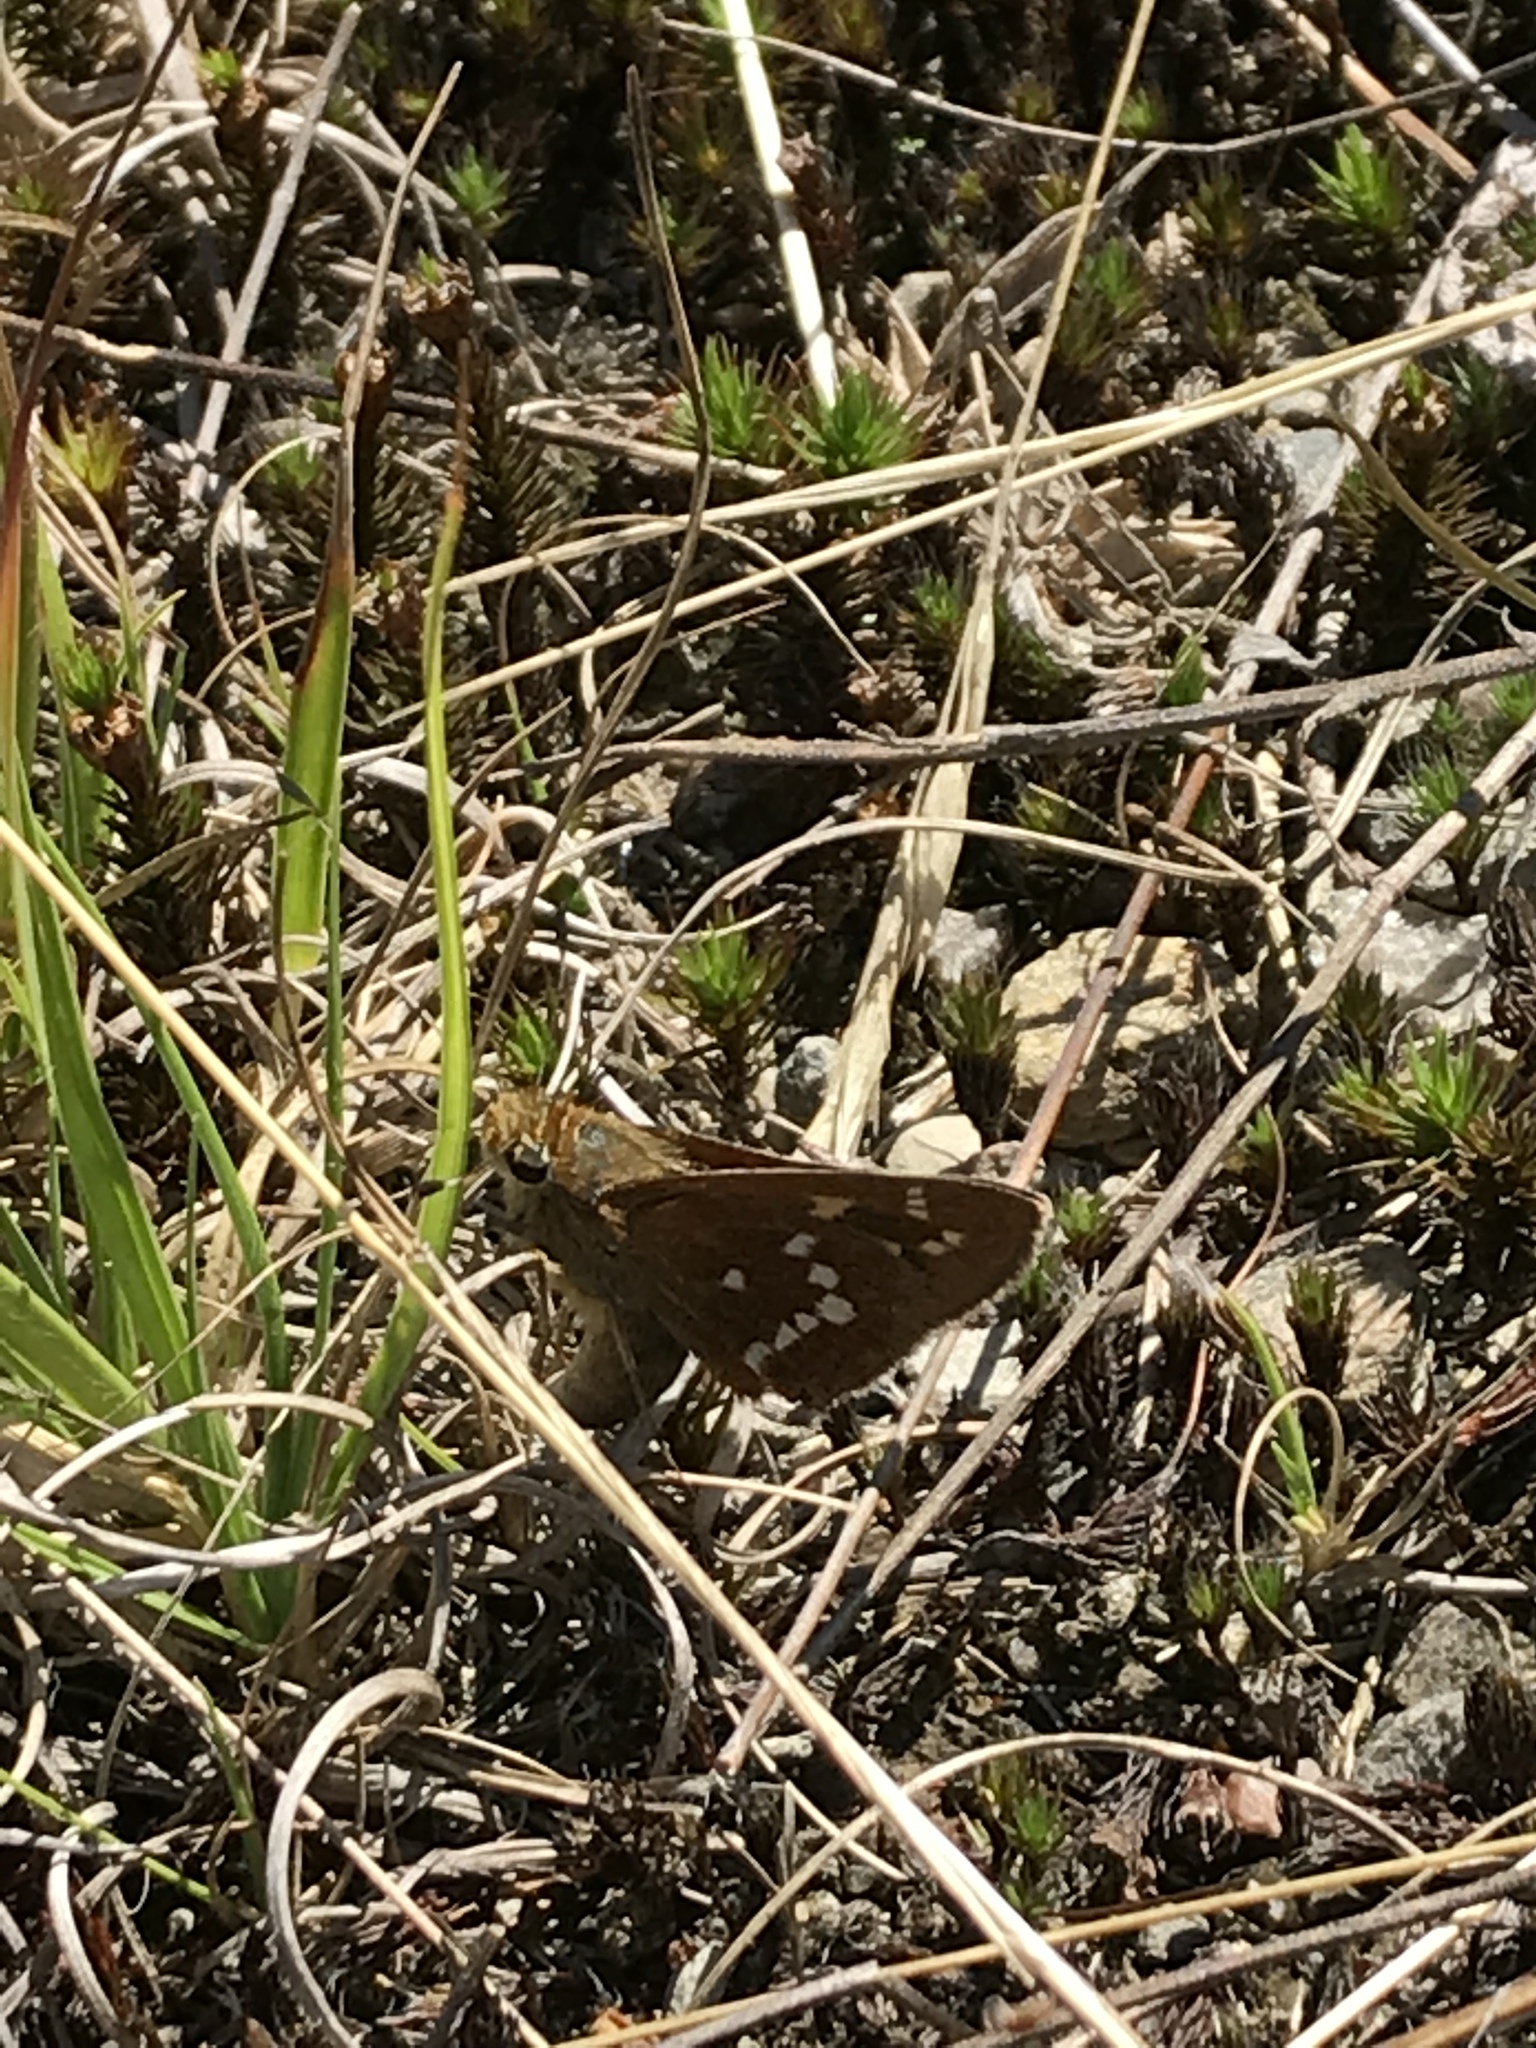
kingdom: Animalia
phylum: Arthropoda
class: Insecta
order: Lepidoptera
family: Hesperiidae
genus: Hesperia
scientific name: Hesperia leonardus
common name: Leonard's skipper
